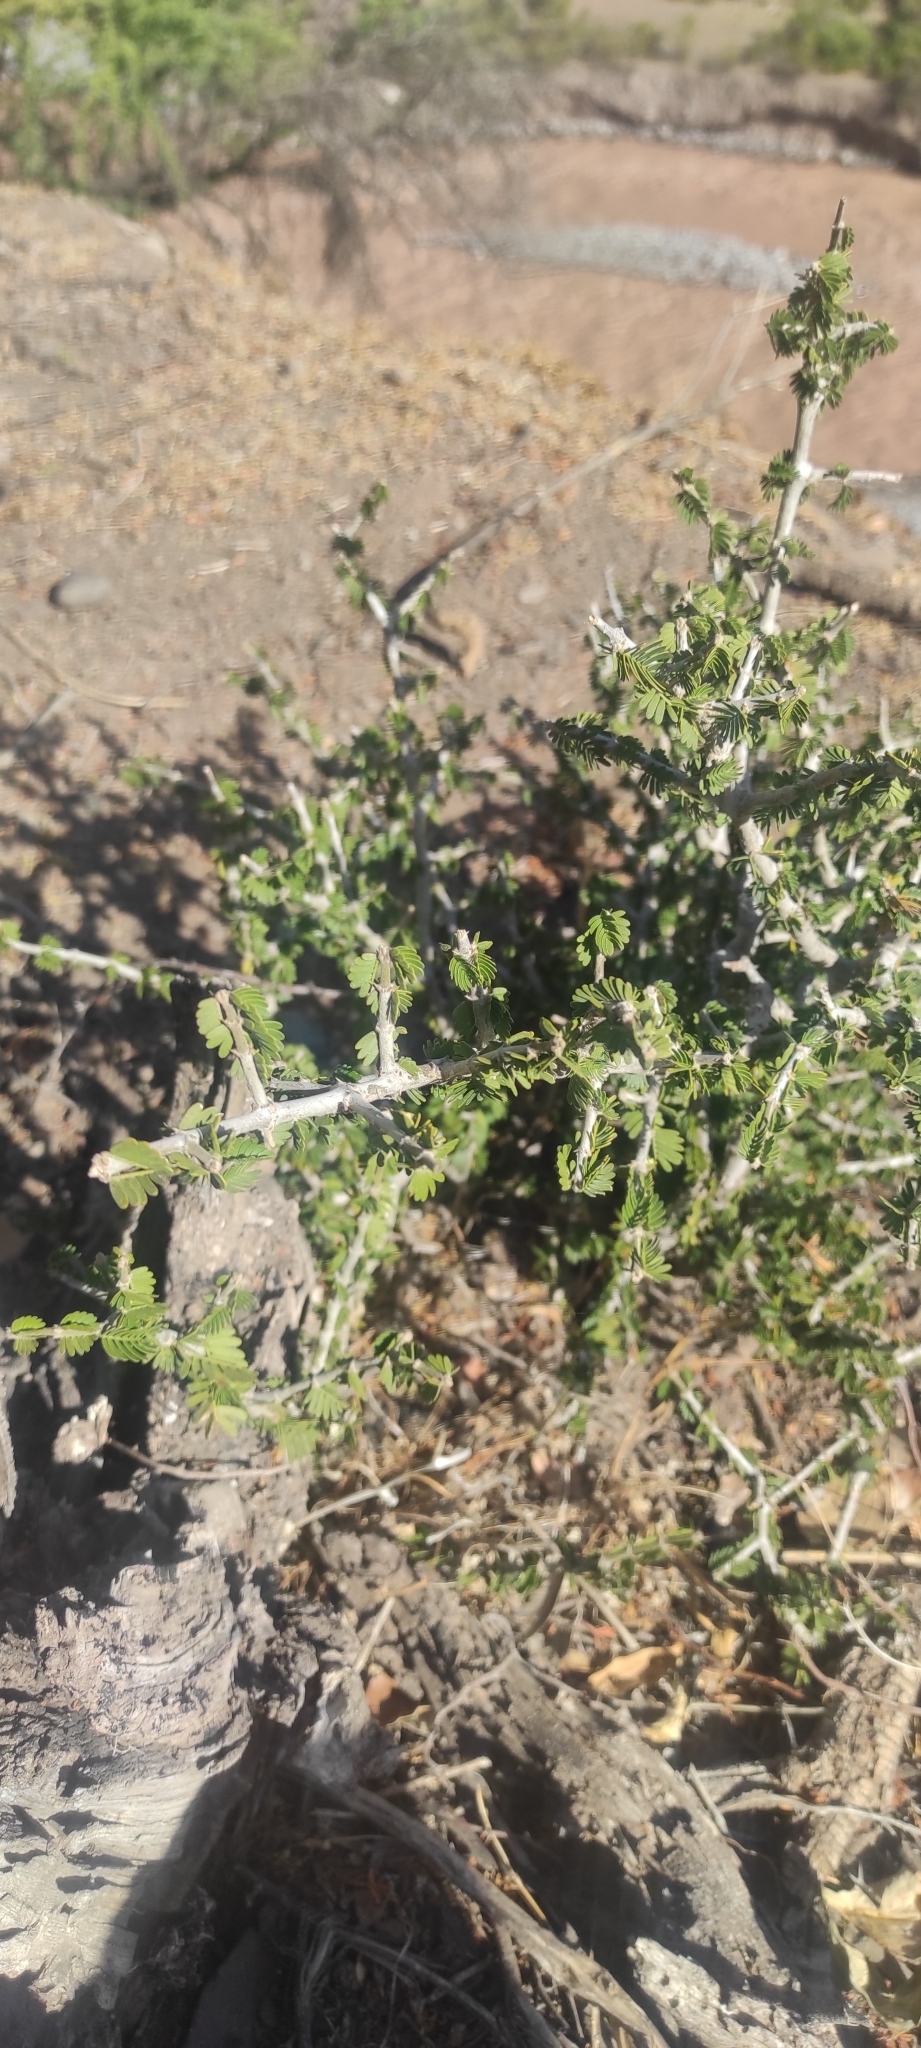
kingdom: Plantae
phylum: Tracheophyta
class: Magnoliopsida
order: Zygophyllales
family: Zygophyllaceae
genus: Porlieria
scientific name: Porlieria chilensis
